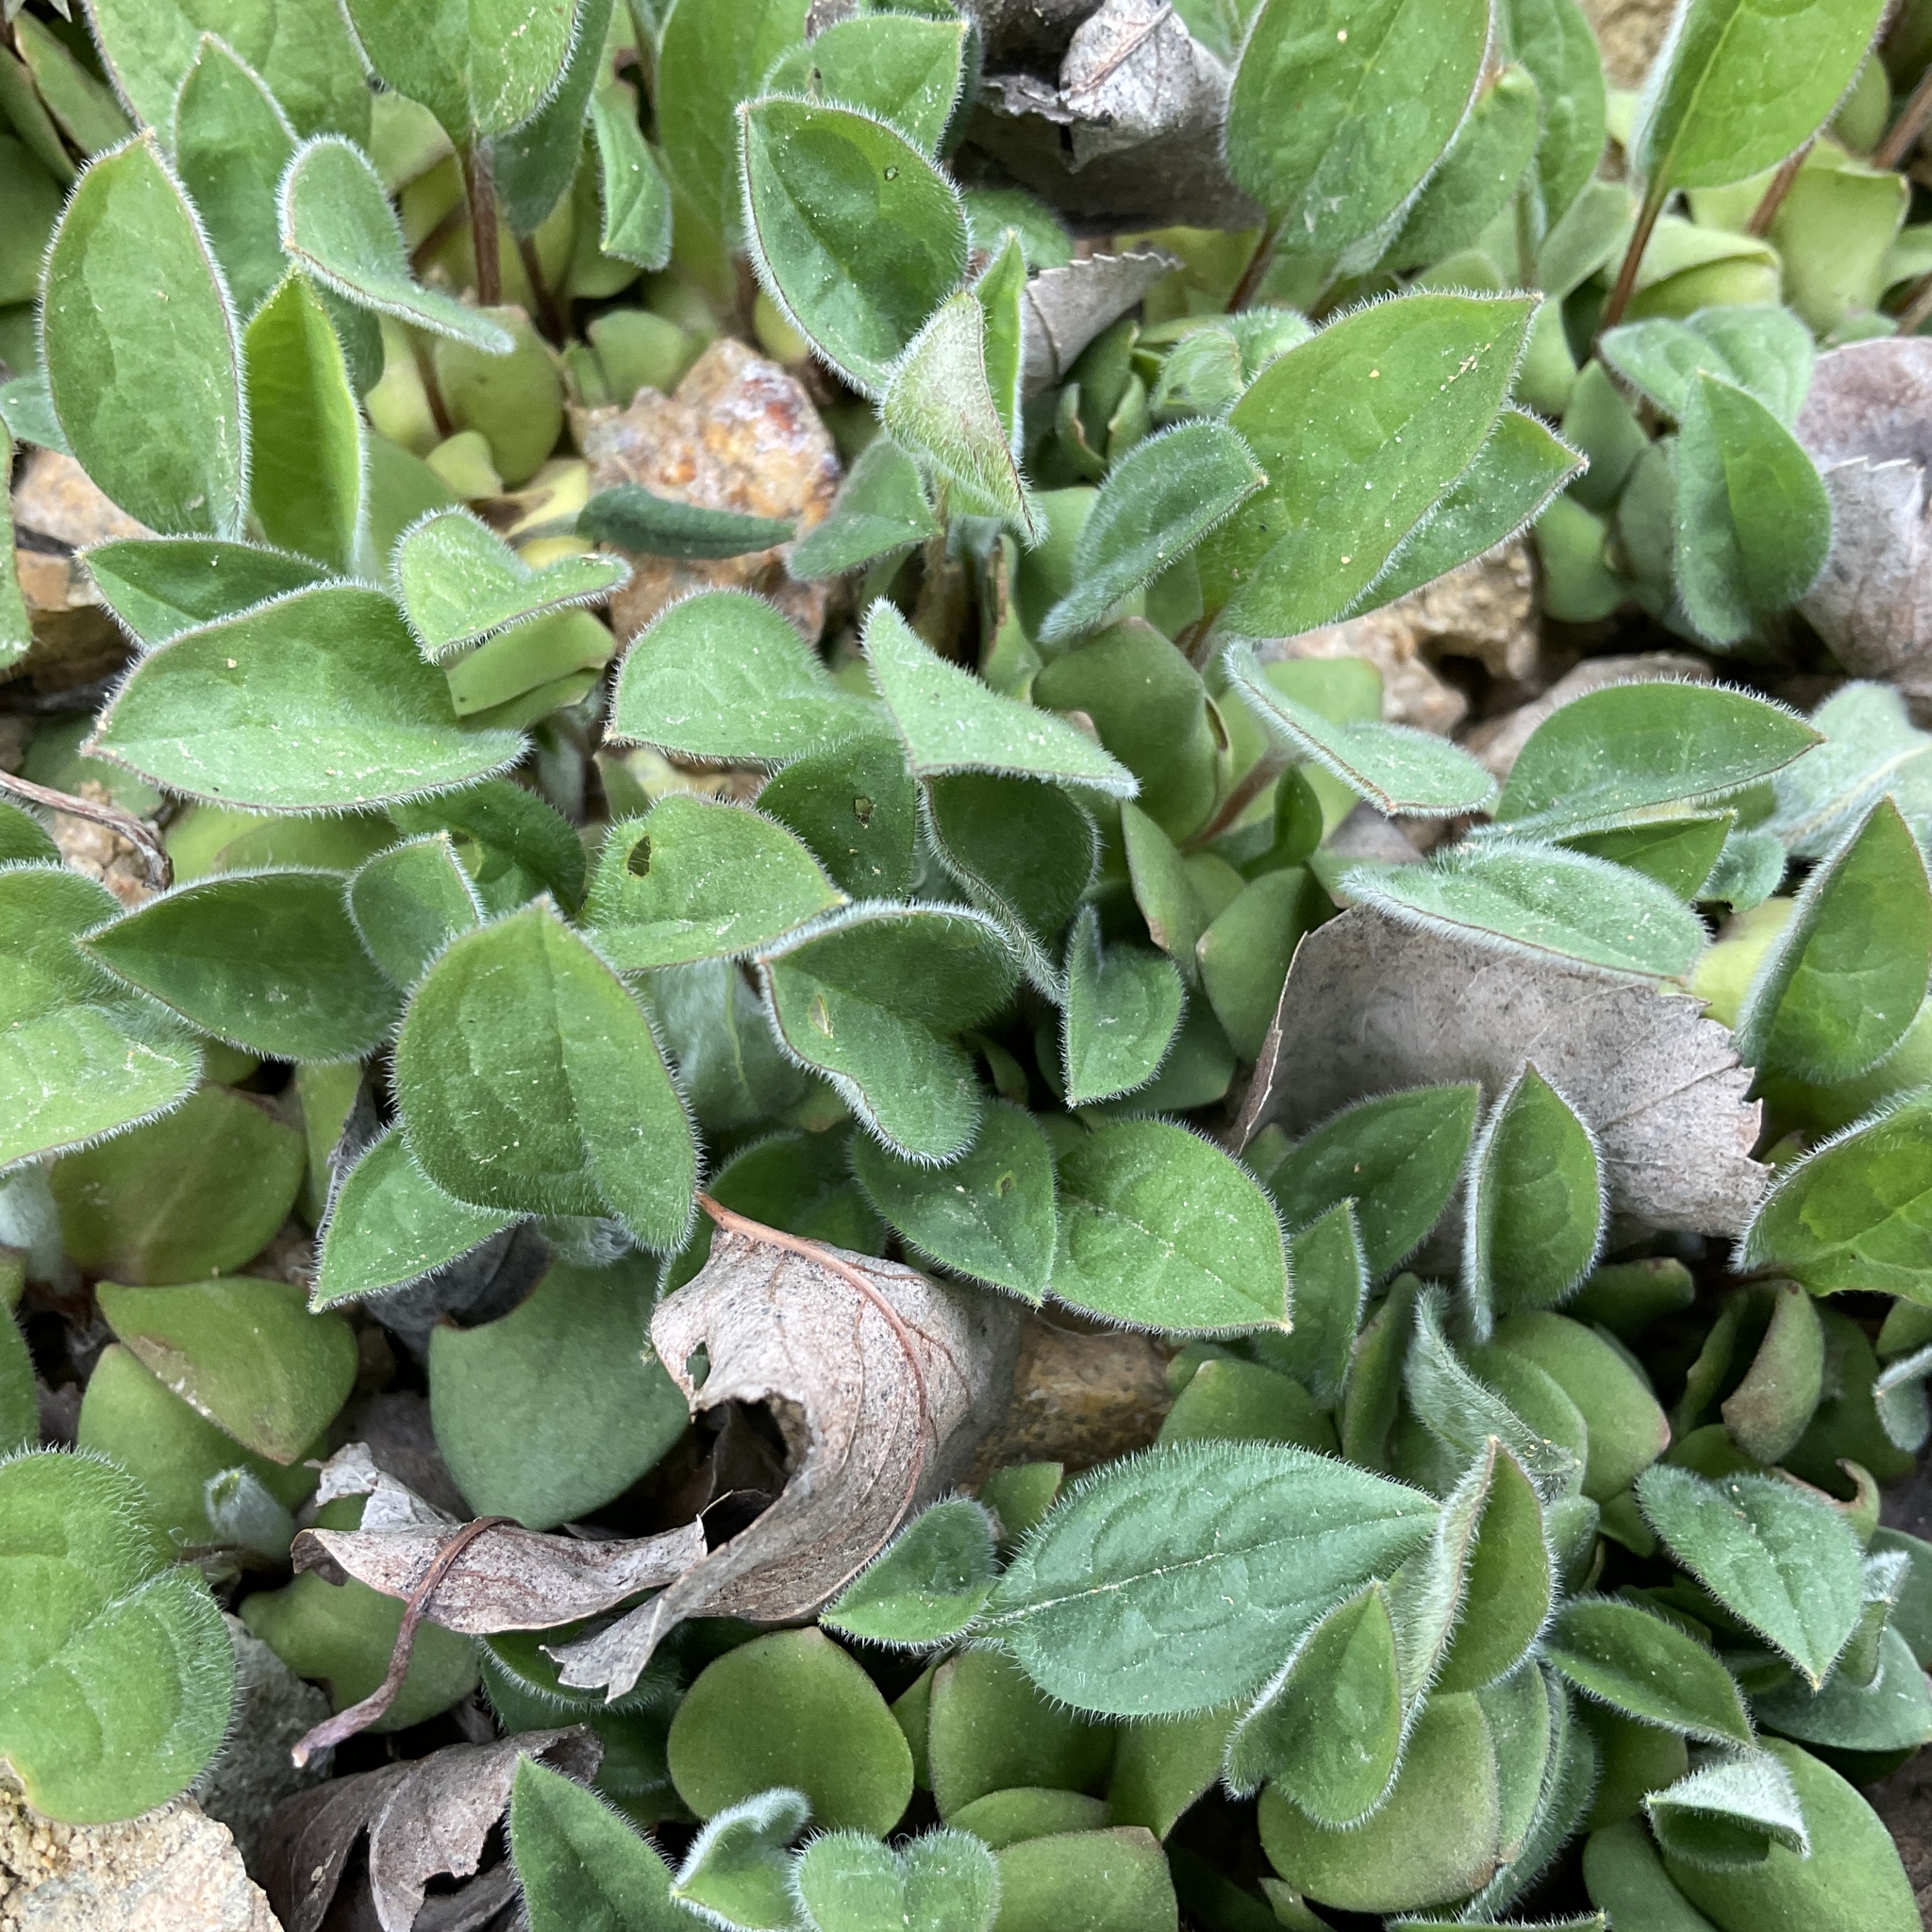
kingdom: Plantae
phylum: Tracheophyta
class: Magnoliopsida
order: Boraginales
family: Boraginaceae
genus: Cynoglossum
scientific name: Cynoglossum officinale
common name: Hound's-tongue
